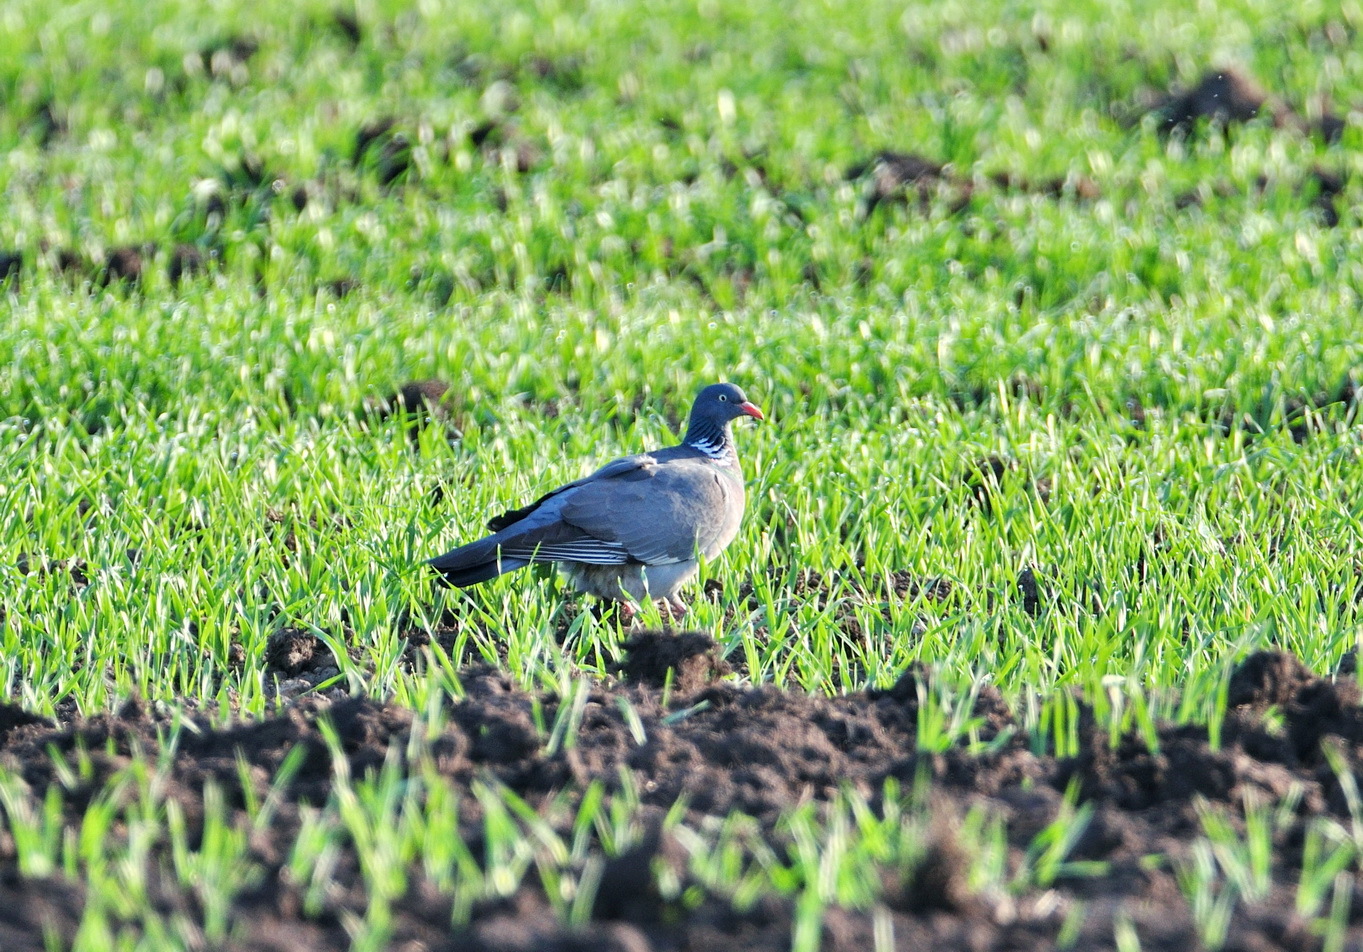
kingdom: Animalia
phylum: Chordata
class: Aves
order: Columbiformes
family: Columbidae
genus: Columba
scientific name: Columba palumbus
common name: Common wood pigeon
